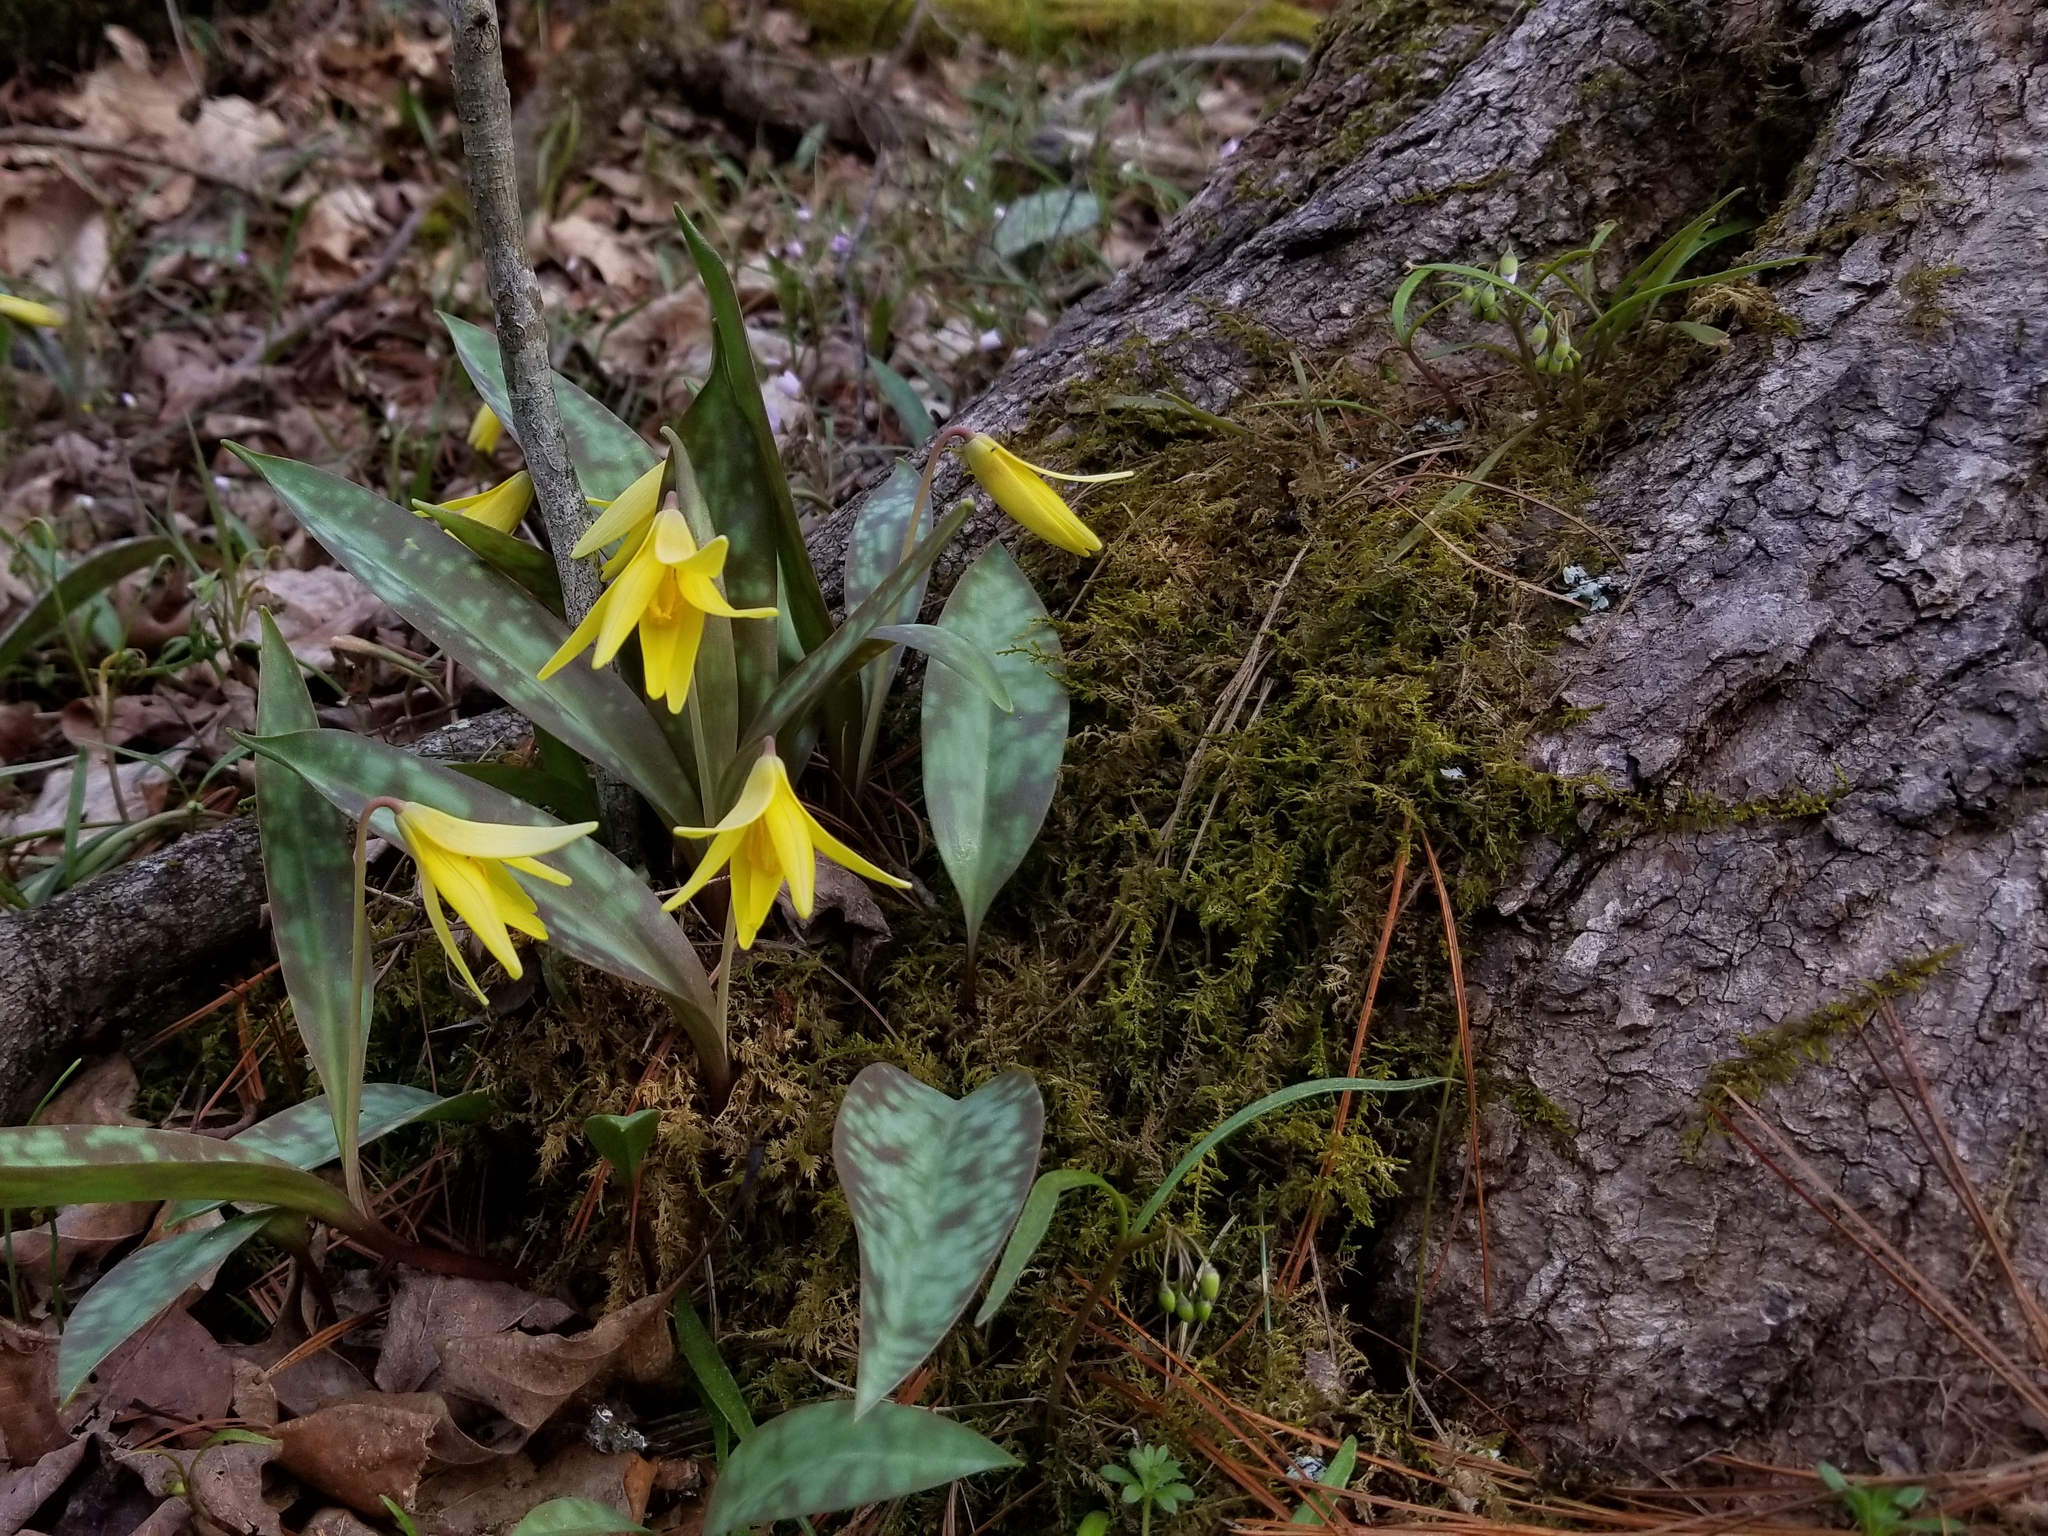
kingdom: Plantae
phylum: Tracheophyta
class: Liliopsida
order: Liliales
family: Liliaceae
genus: Erythronium
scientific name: Erythronium americanum
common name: Yellow adder's-tongue
